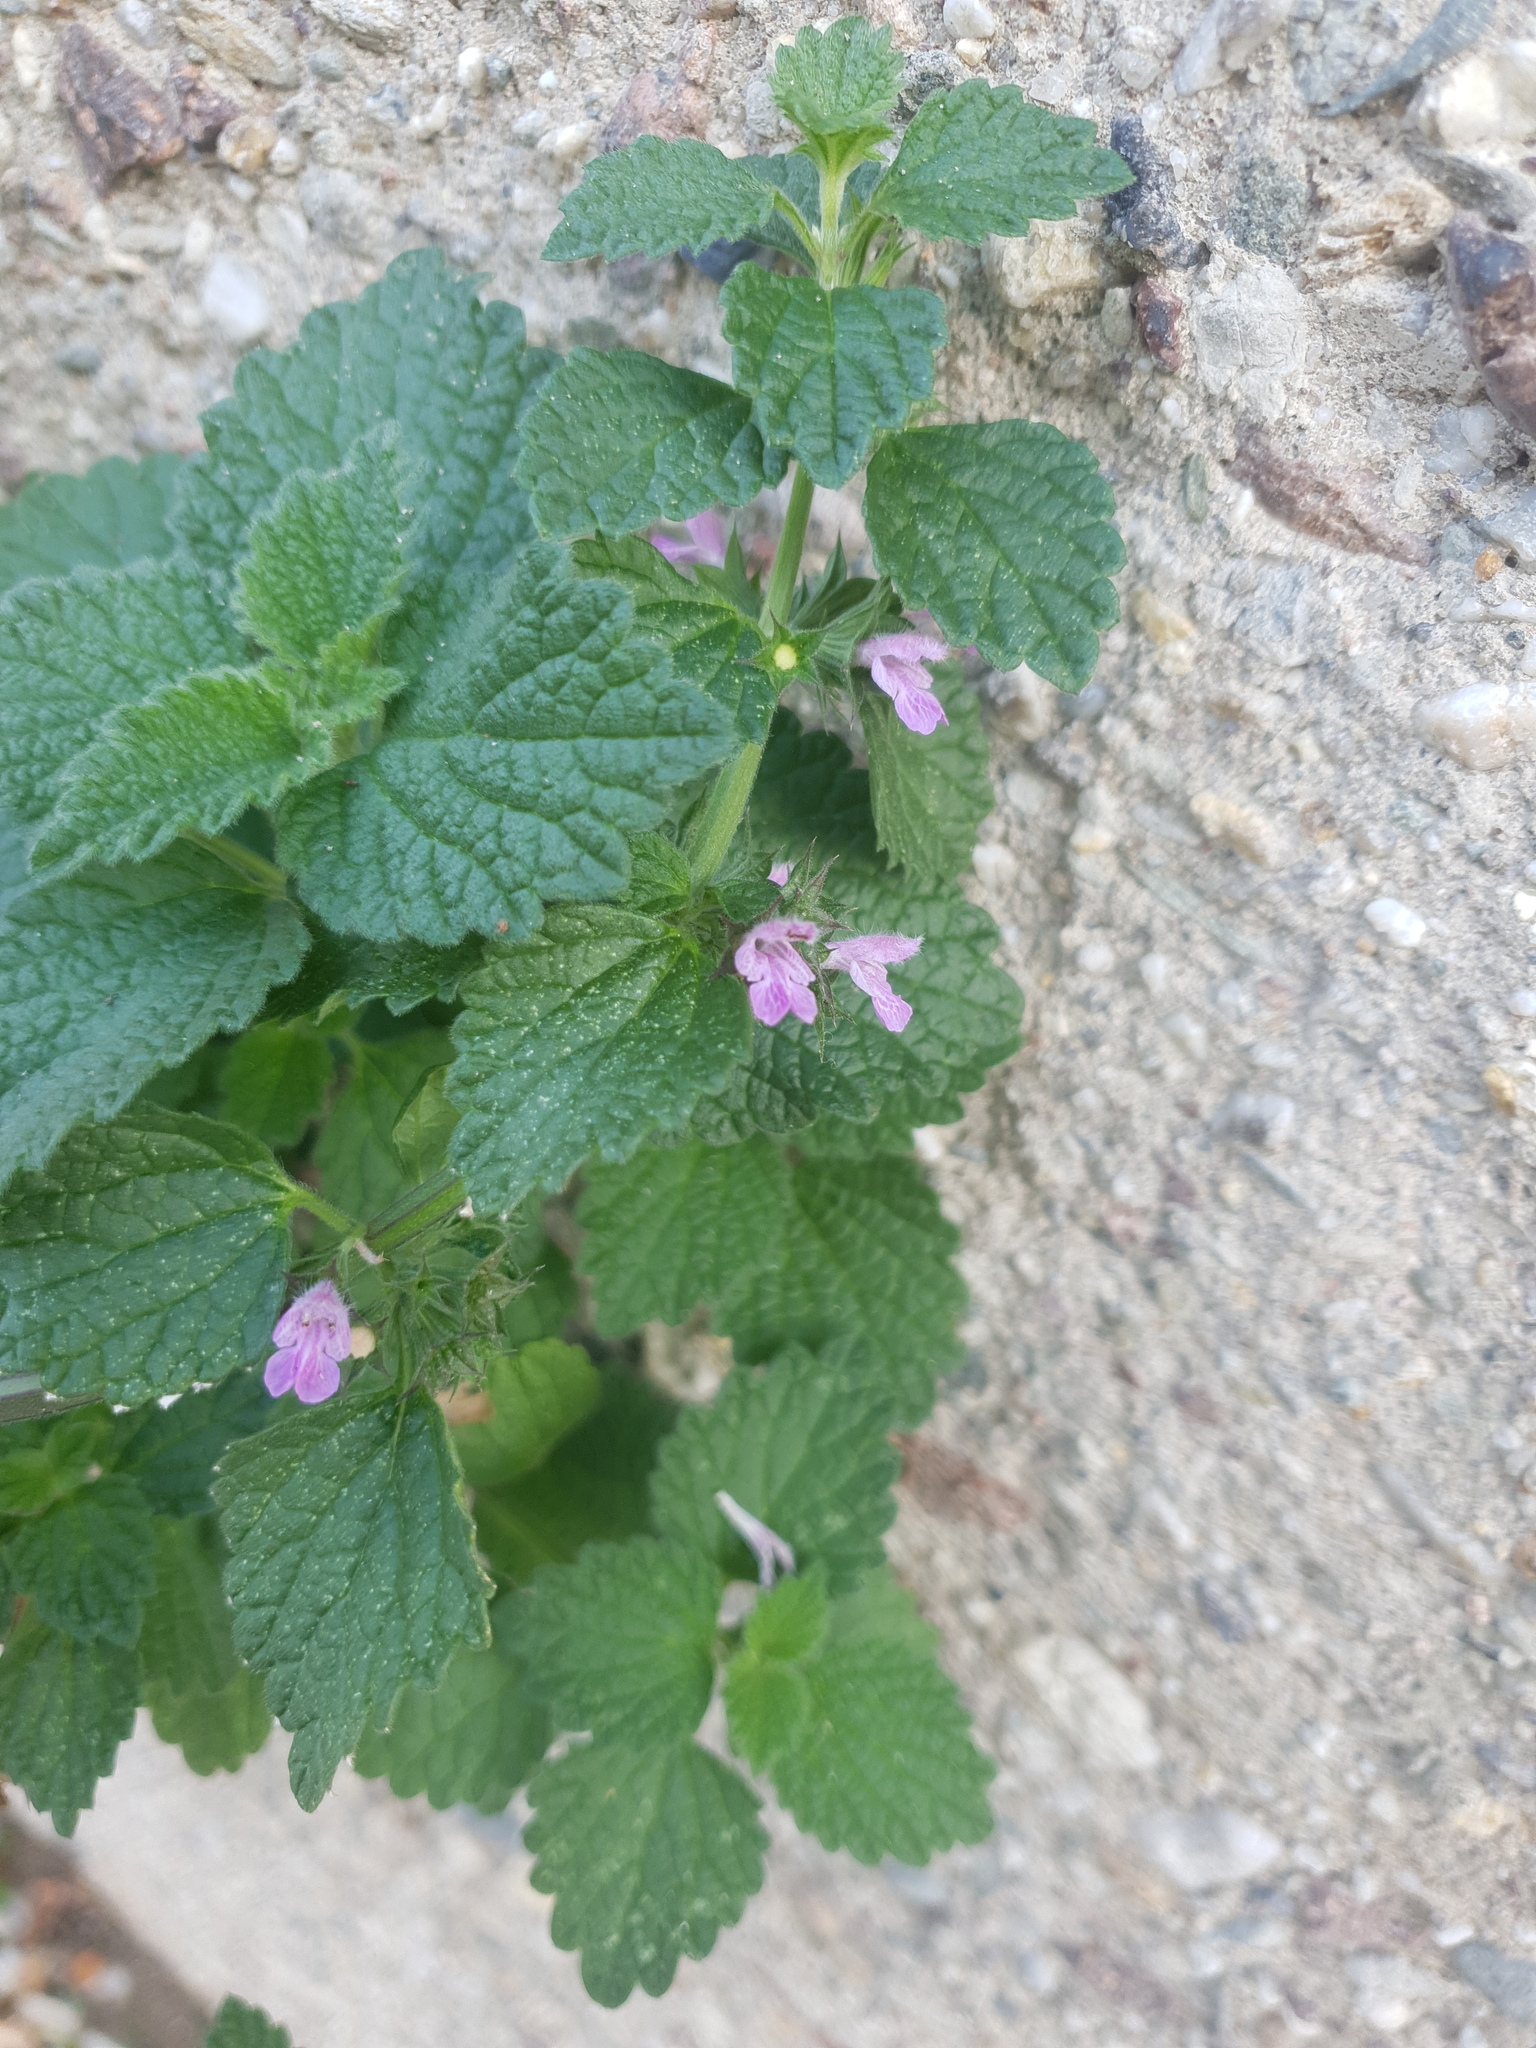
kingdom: Plantae
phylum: Tracheophyta
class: Magnoliopsida
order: Lamiales
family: Lamiaceae
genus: Ballota
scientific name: Ballota nigra
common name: Black horehound
